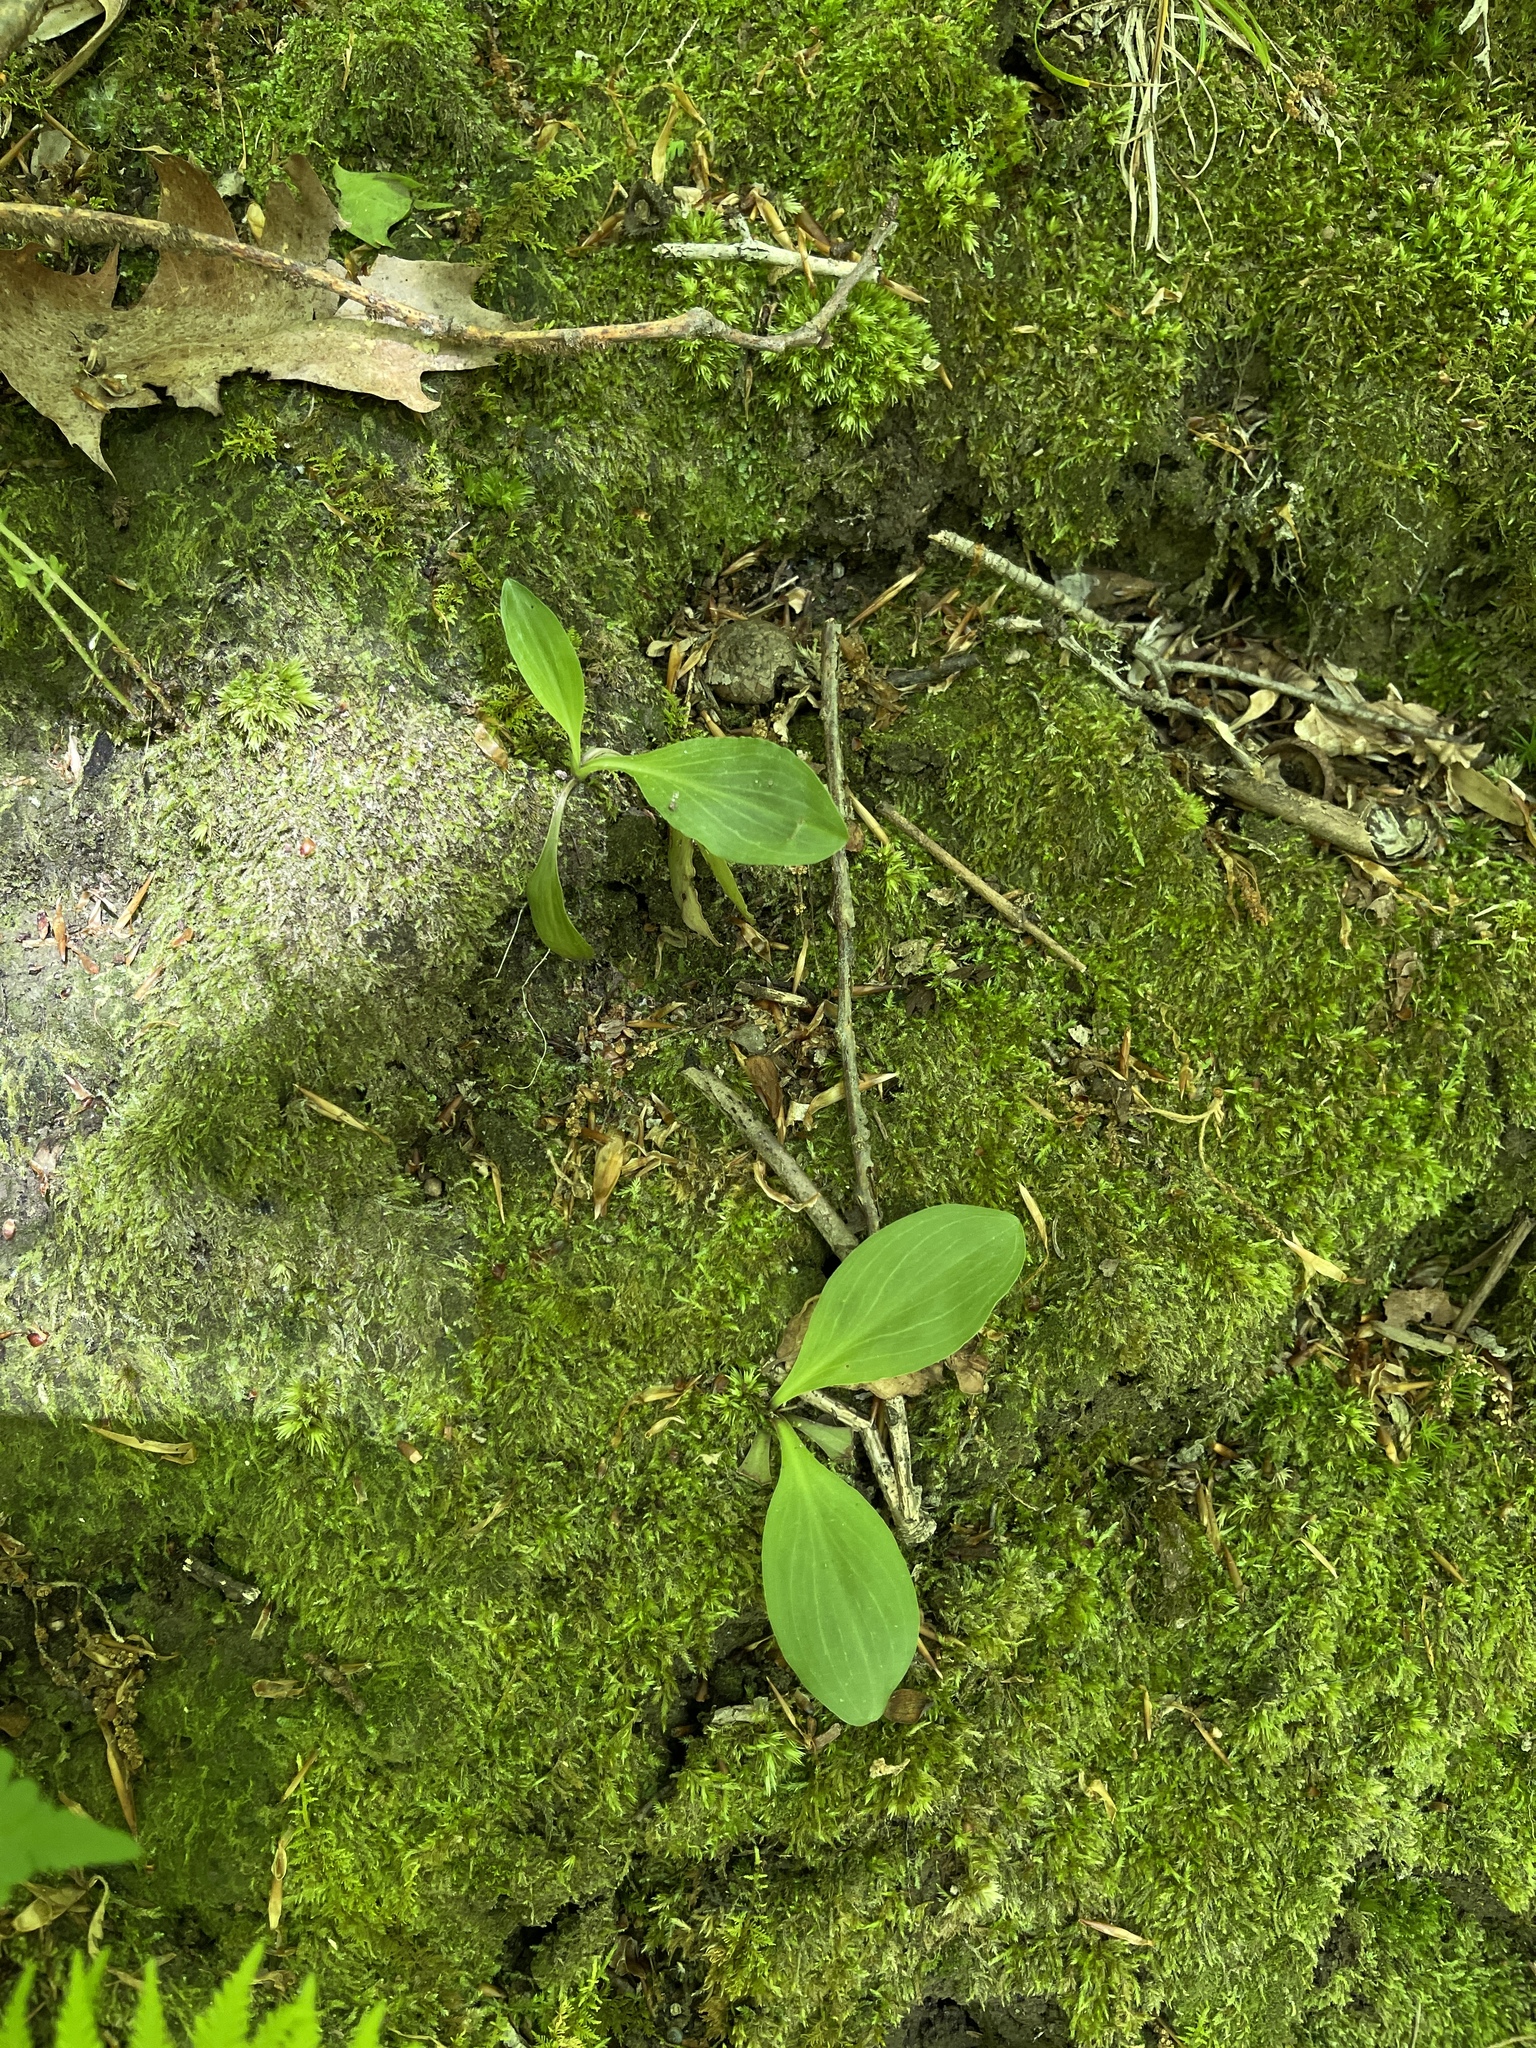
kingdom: Plantae
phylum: Tracheophyta
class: Liliopsida
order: Liliales
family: Melanthiaceae
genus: Chamaelirium
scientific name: Chamaelirium luteum
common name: Fairy-wand
